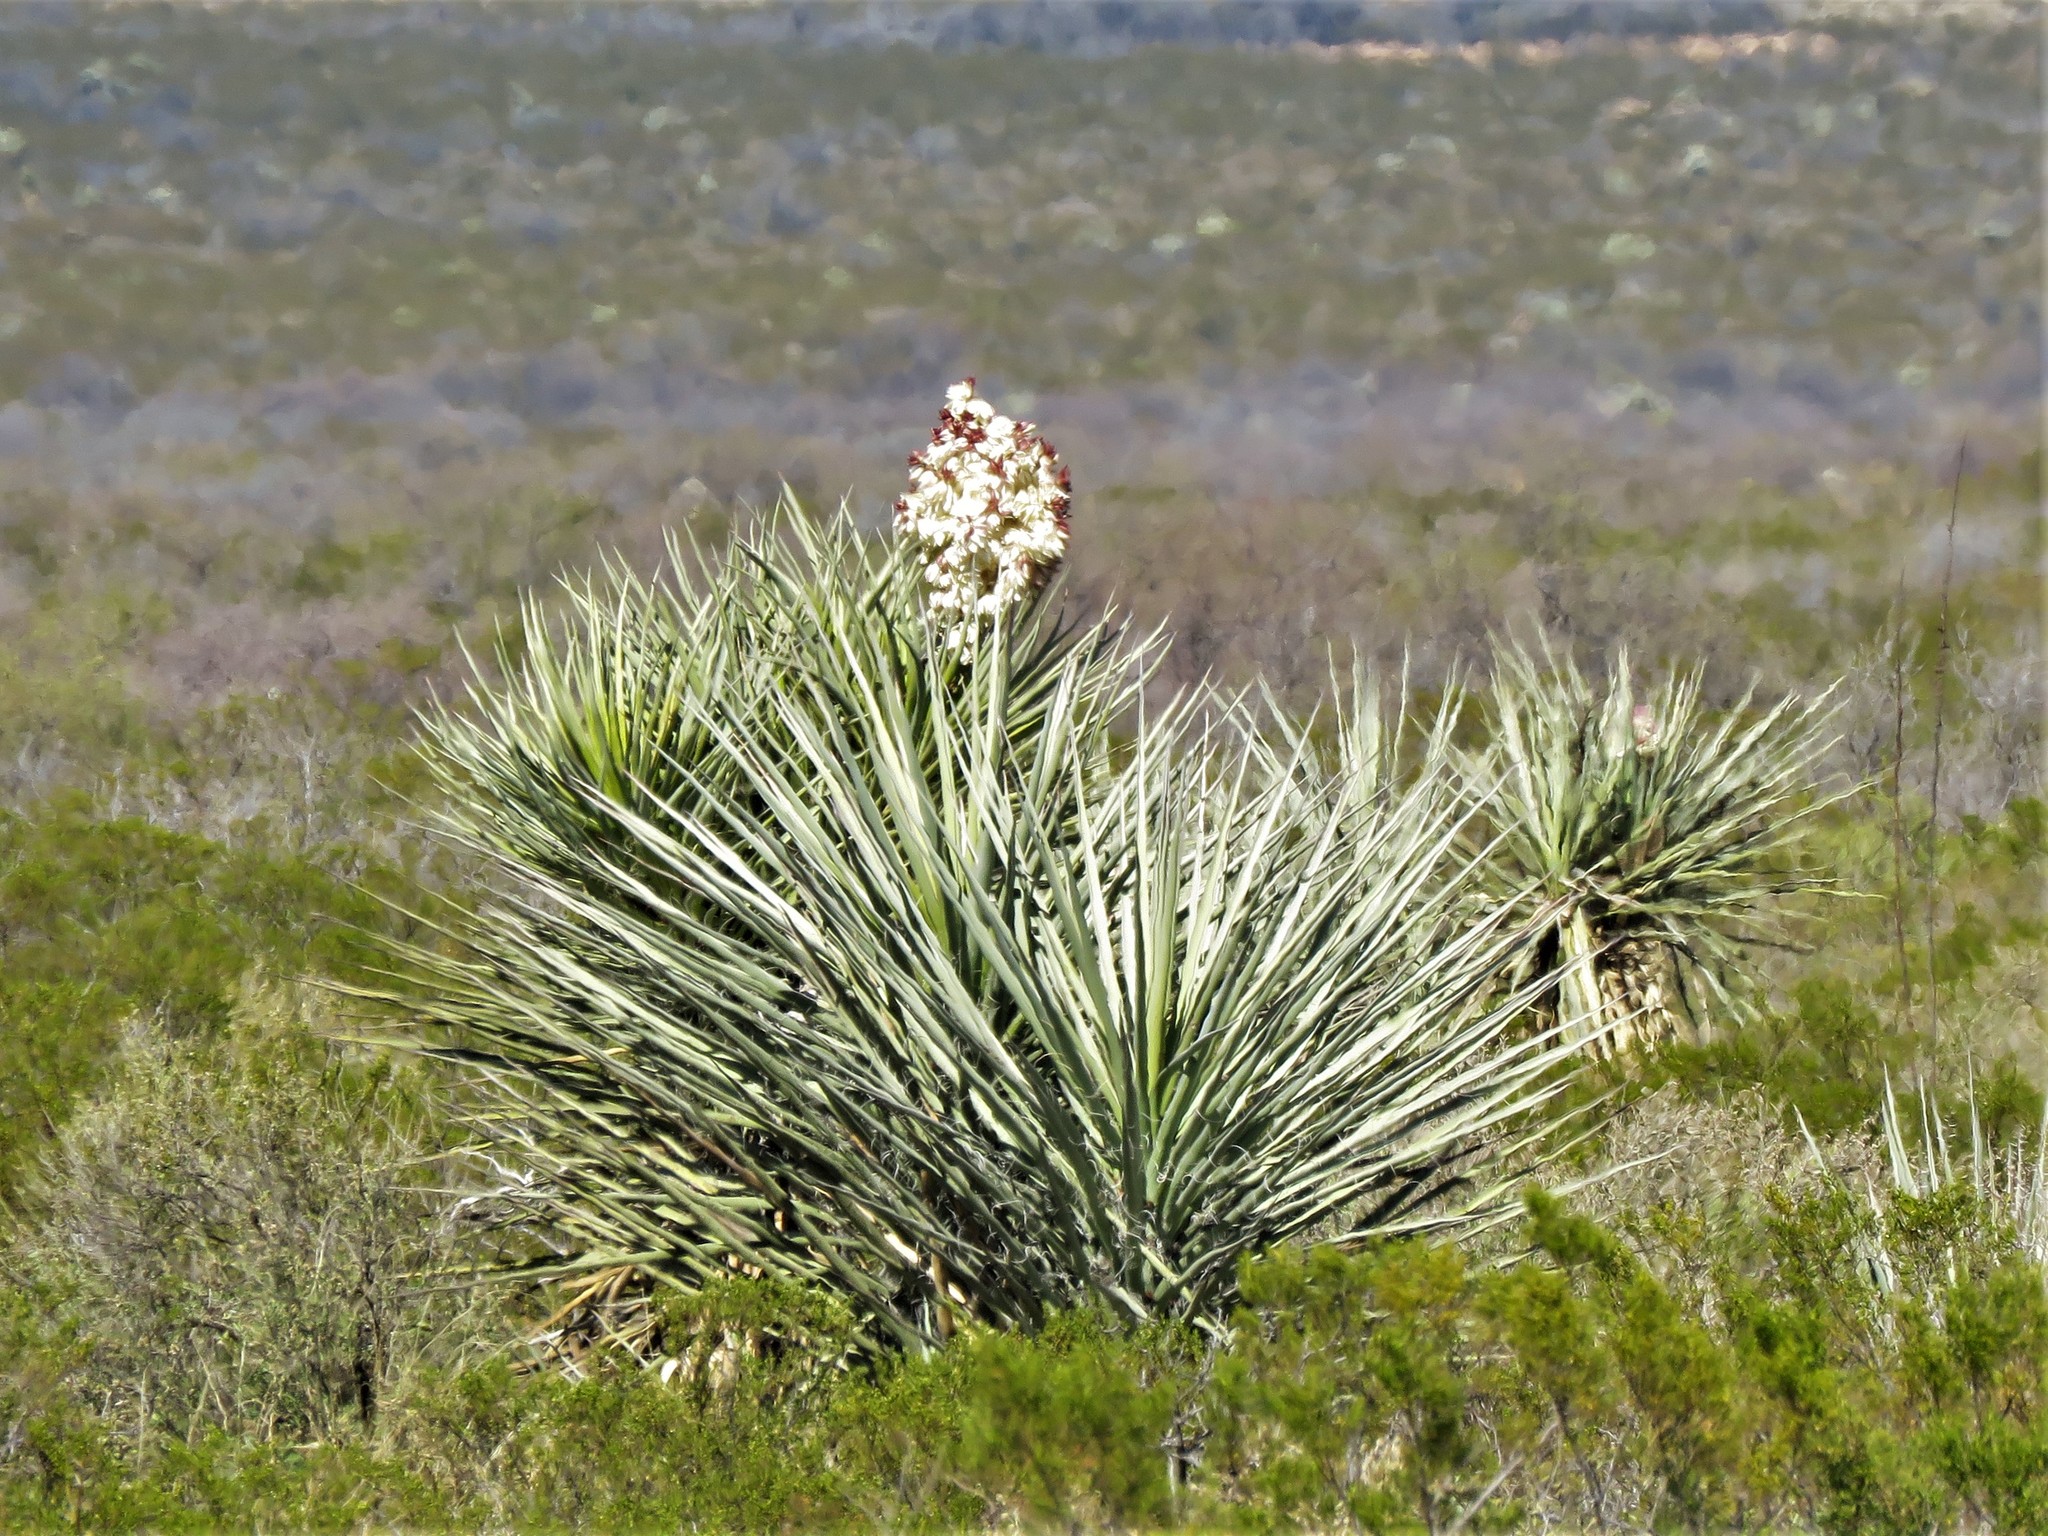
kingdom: Plantae
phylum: Tracheophyta
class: Liliopsida
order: Asparagales
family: Asparagaceae
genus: Yucca
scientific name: Yucca treculiana
